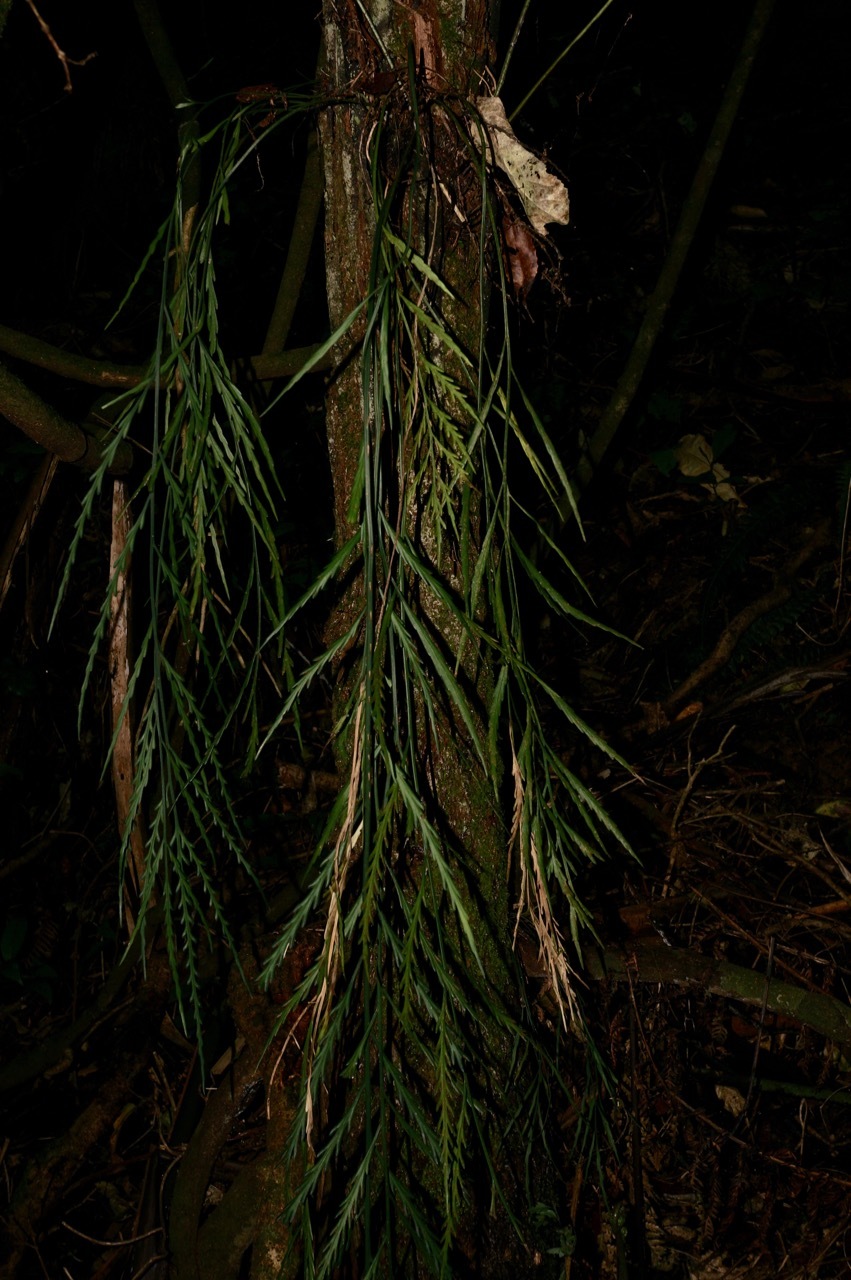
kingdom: Plantae
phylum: Tracheophyta
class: Polypodiopsida
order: Polypodiales
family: Aspleniaceae
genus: Asplenium
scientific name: Asplenium flaccidum
